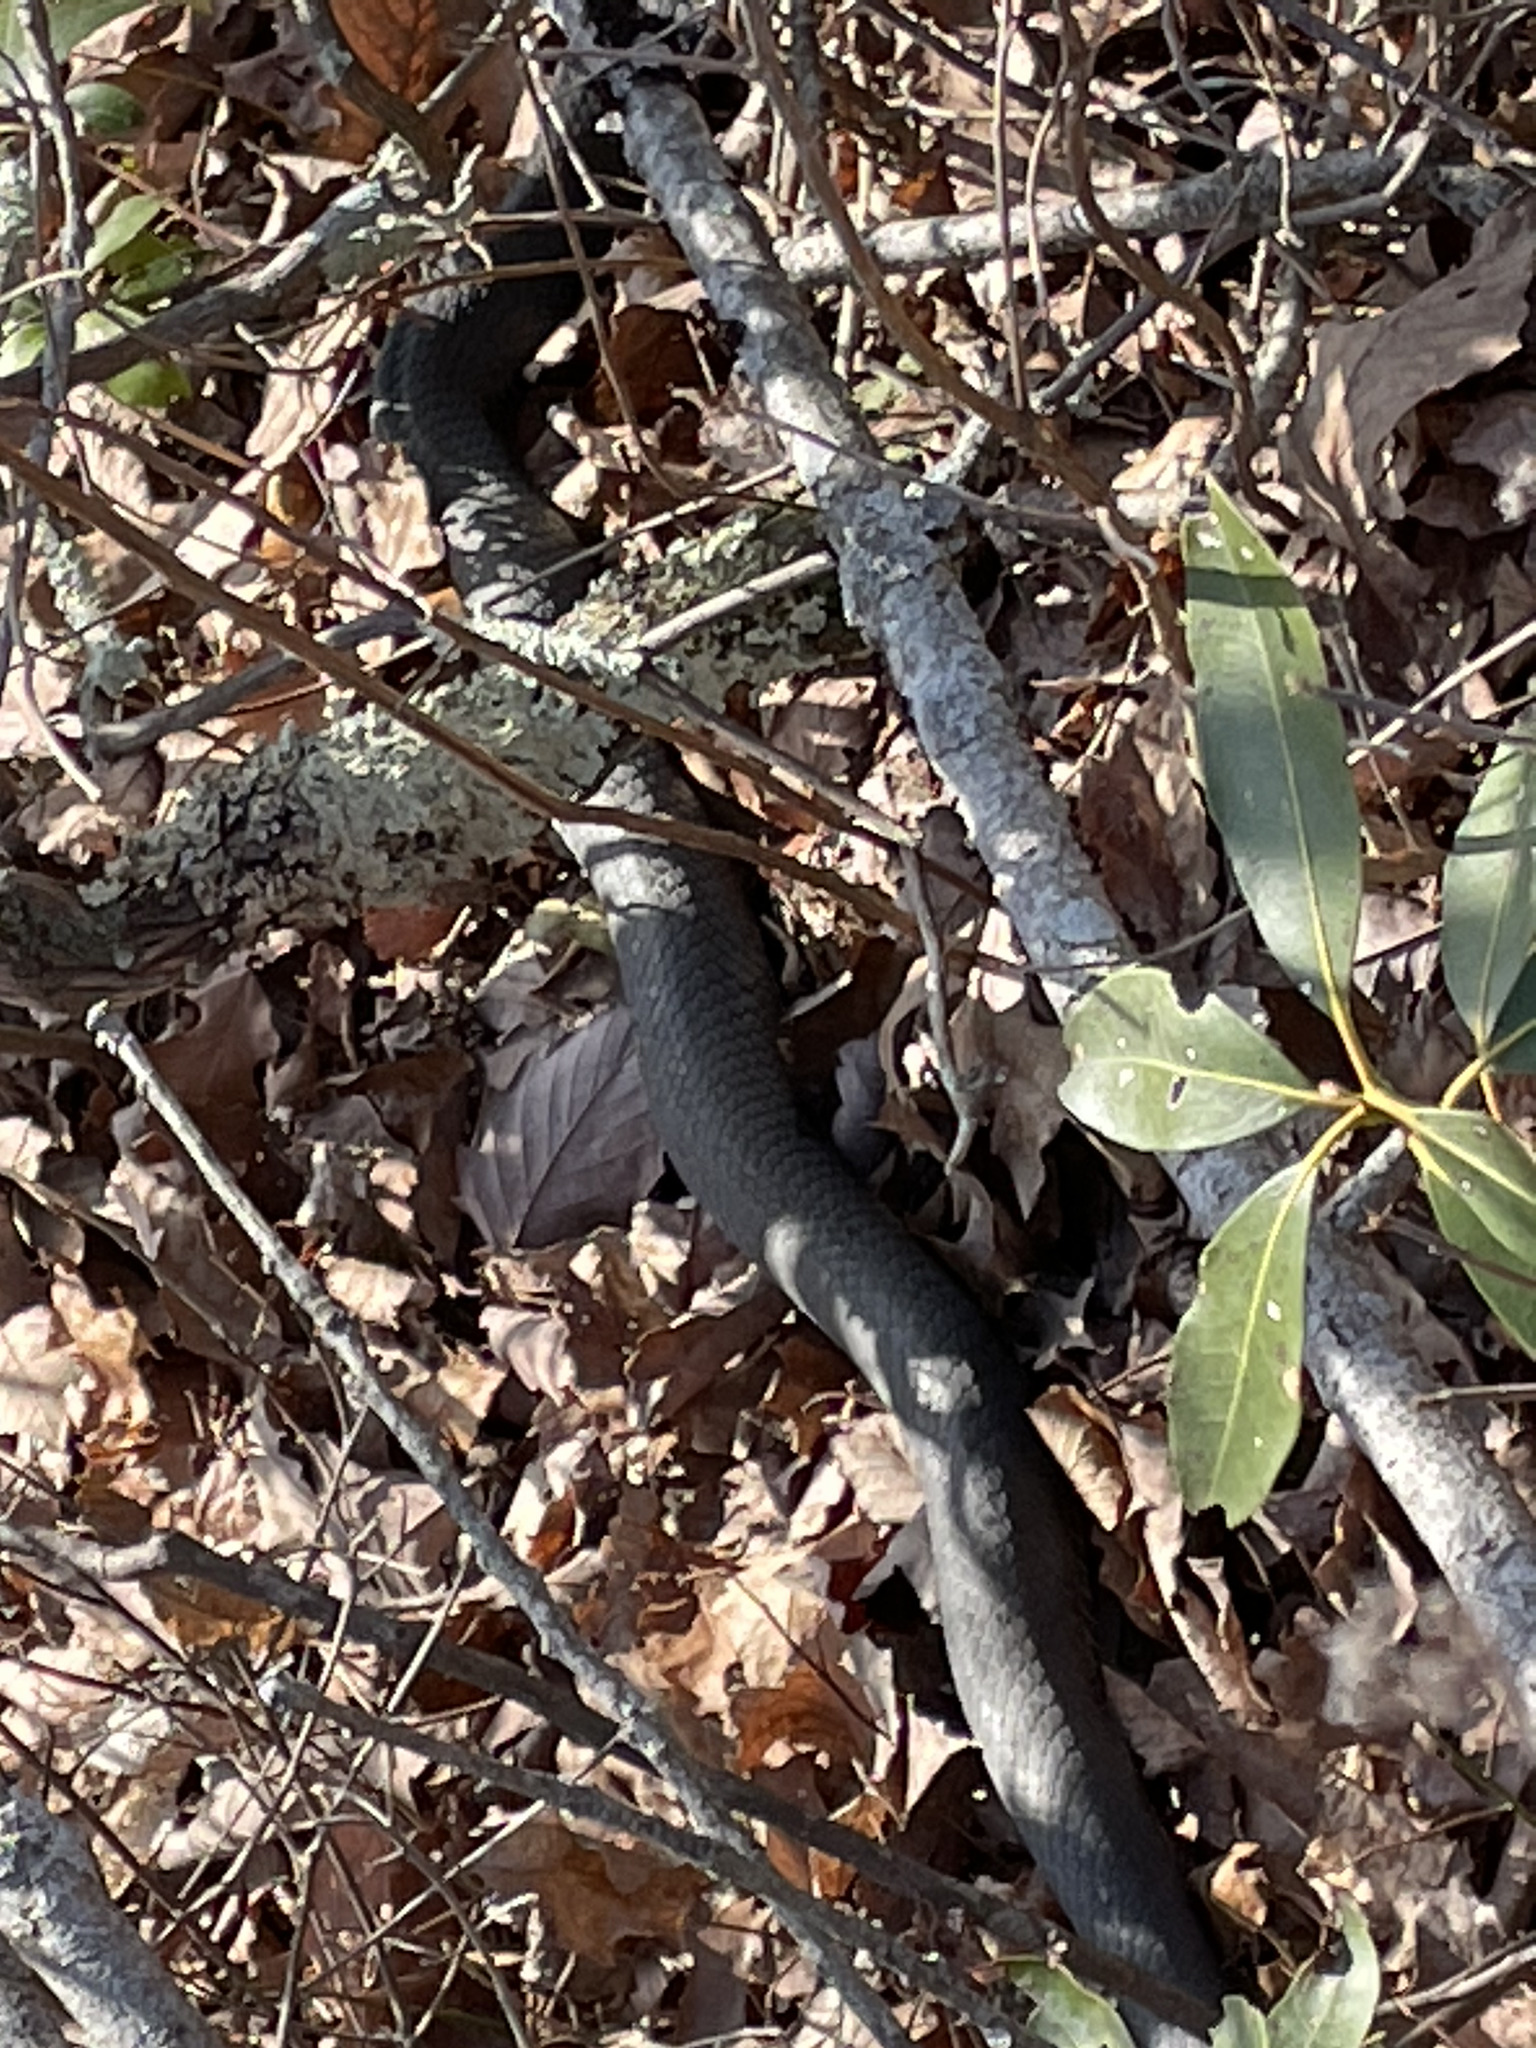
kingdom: Animalia
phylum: Chordata
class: Squamata
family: Colubridae
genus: Coluber
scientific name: Coluber constrictor
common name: Eastern racer
